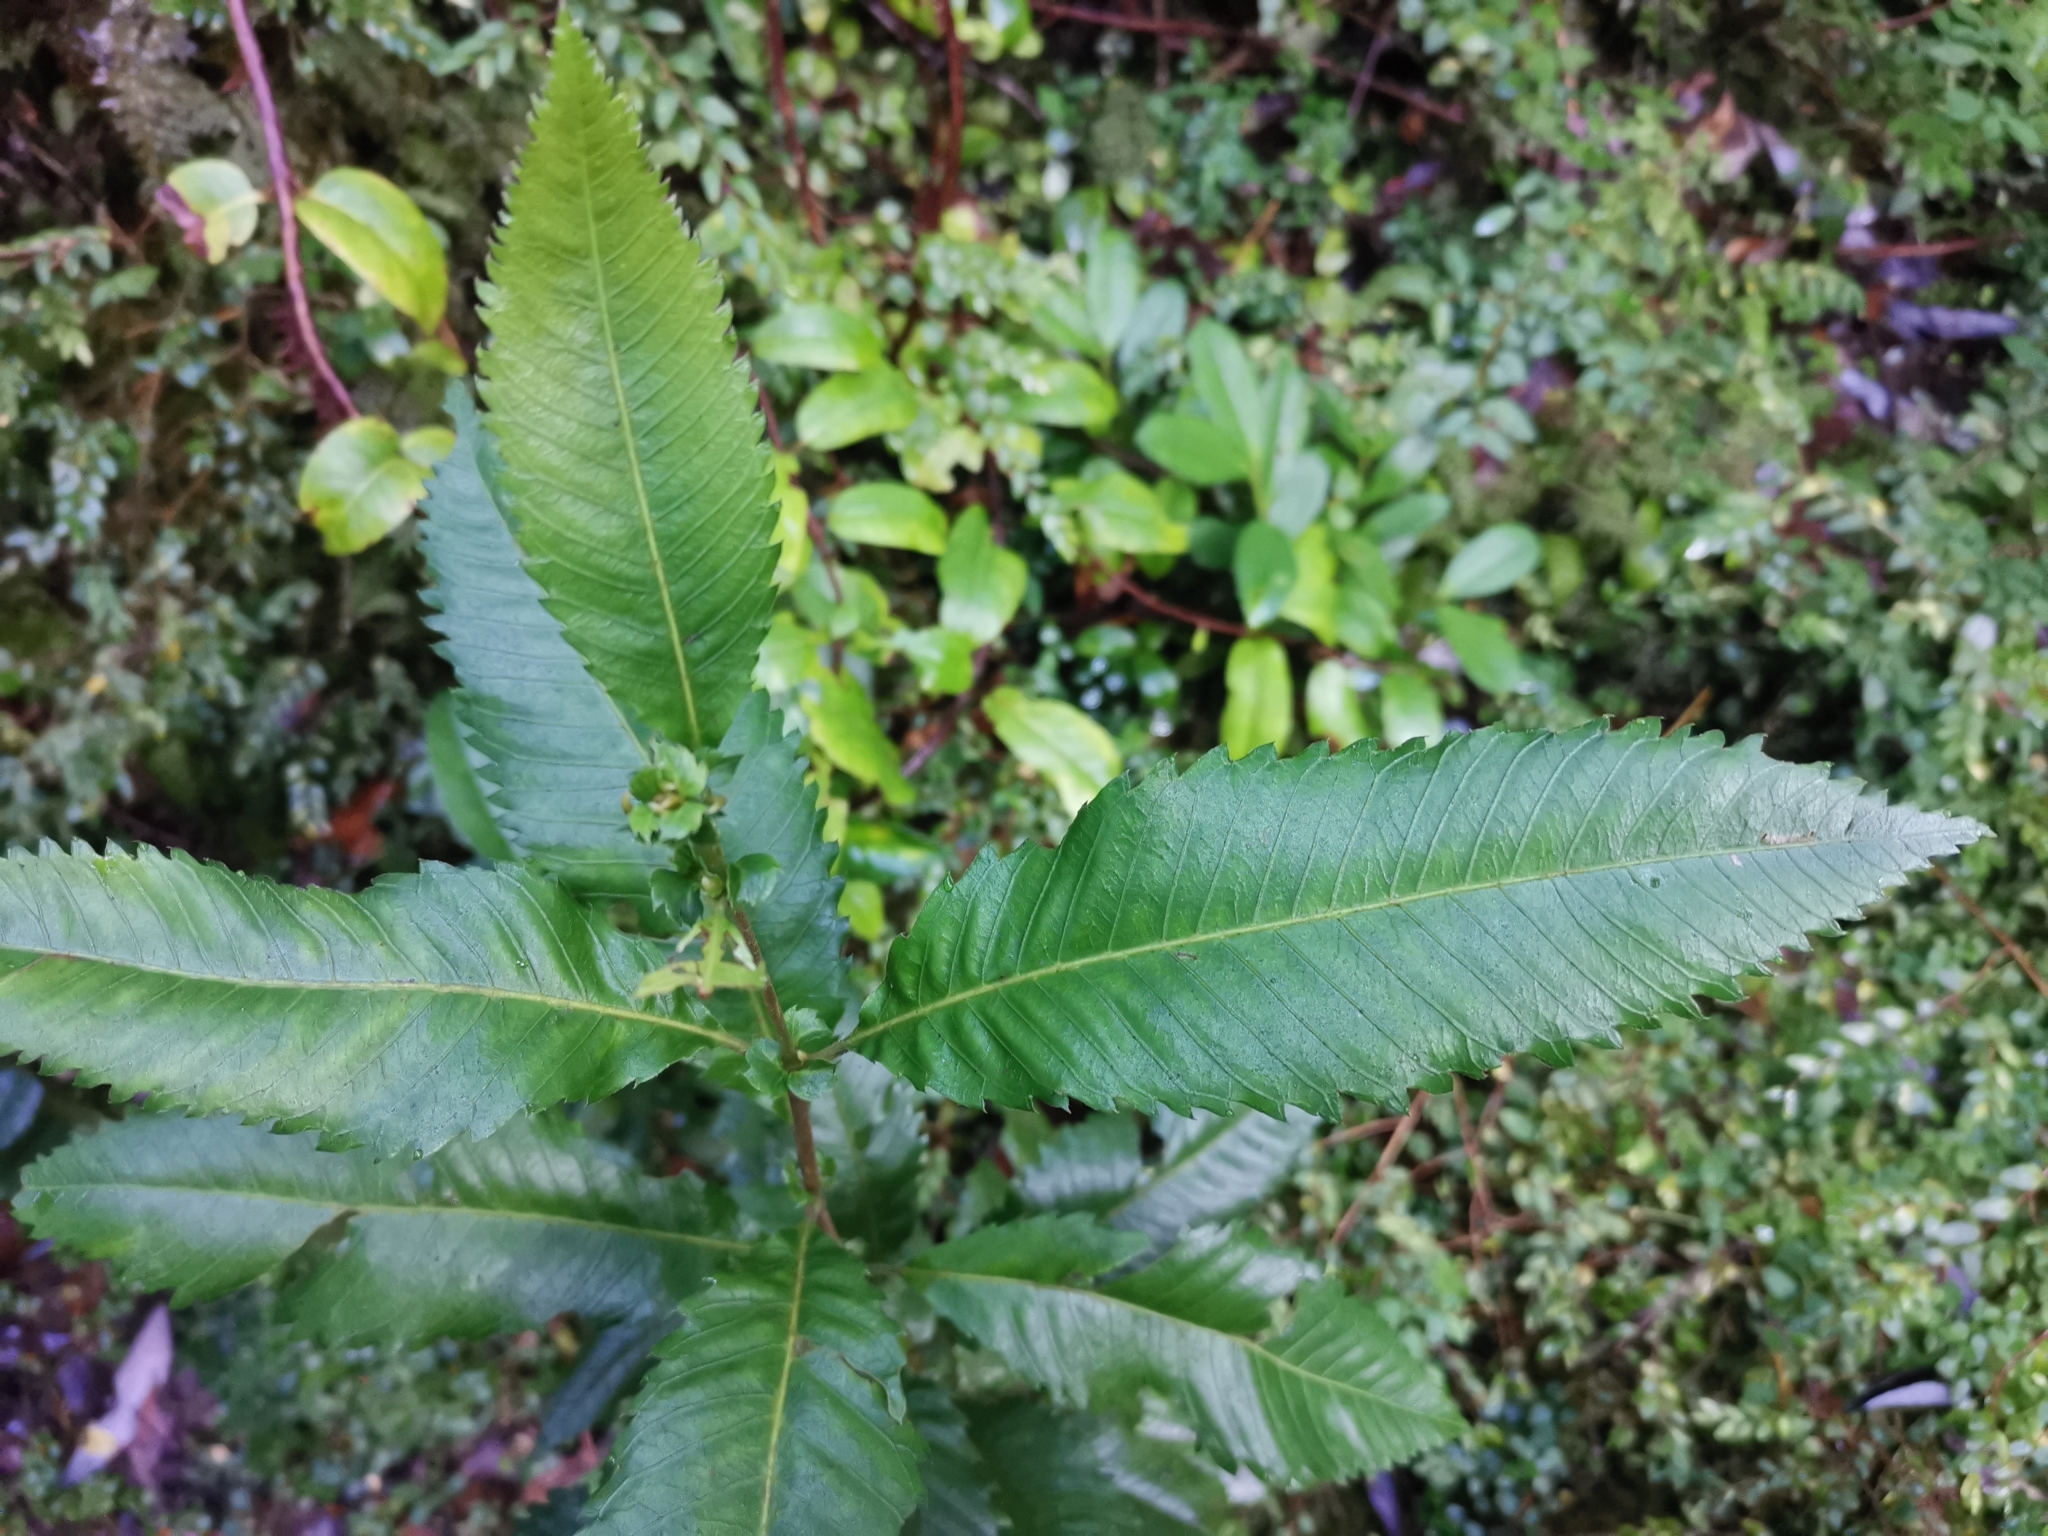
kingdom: Plantae
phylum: Tracheophyta
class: Magnoliopsida
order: Oxalidales
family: Cunoniaceae
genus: Caldcluvia
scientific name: Caldcluvia paniculata
